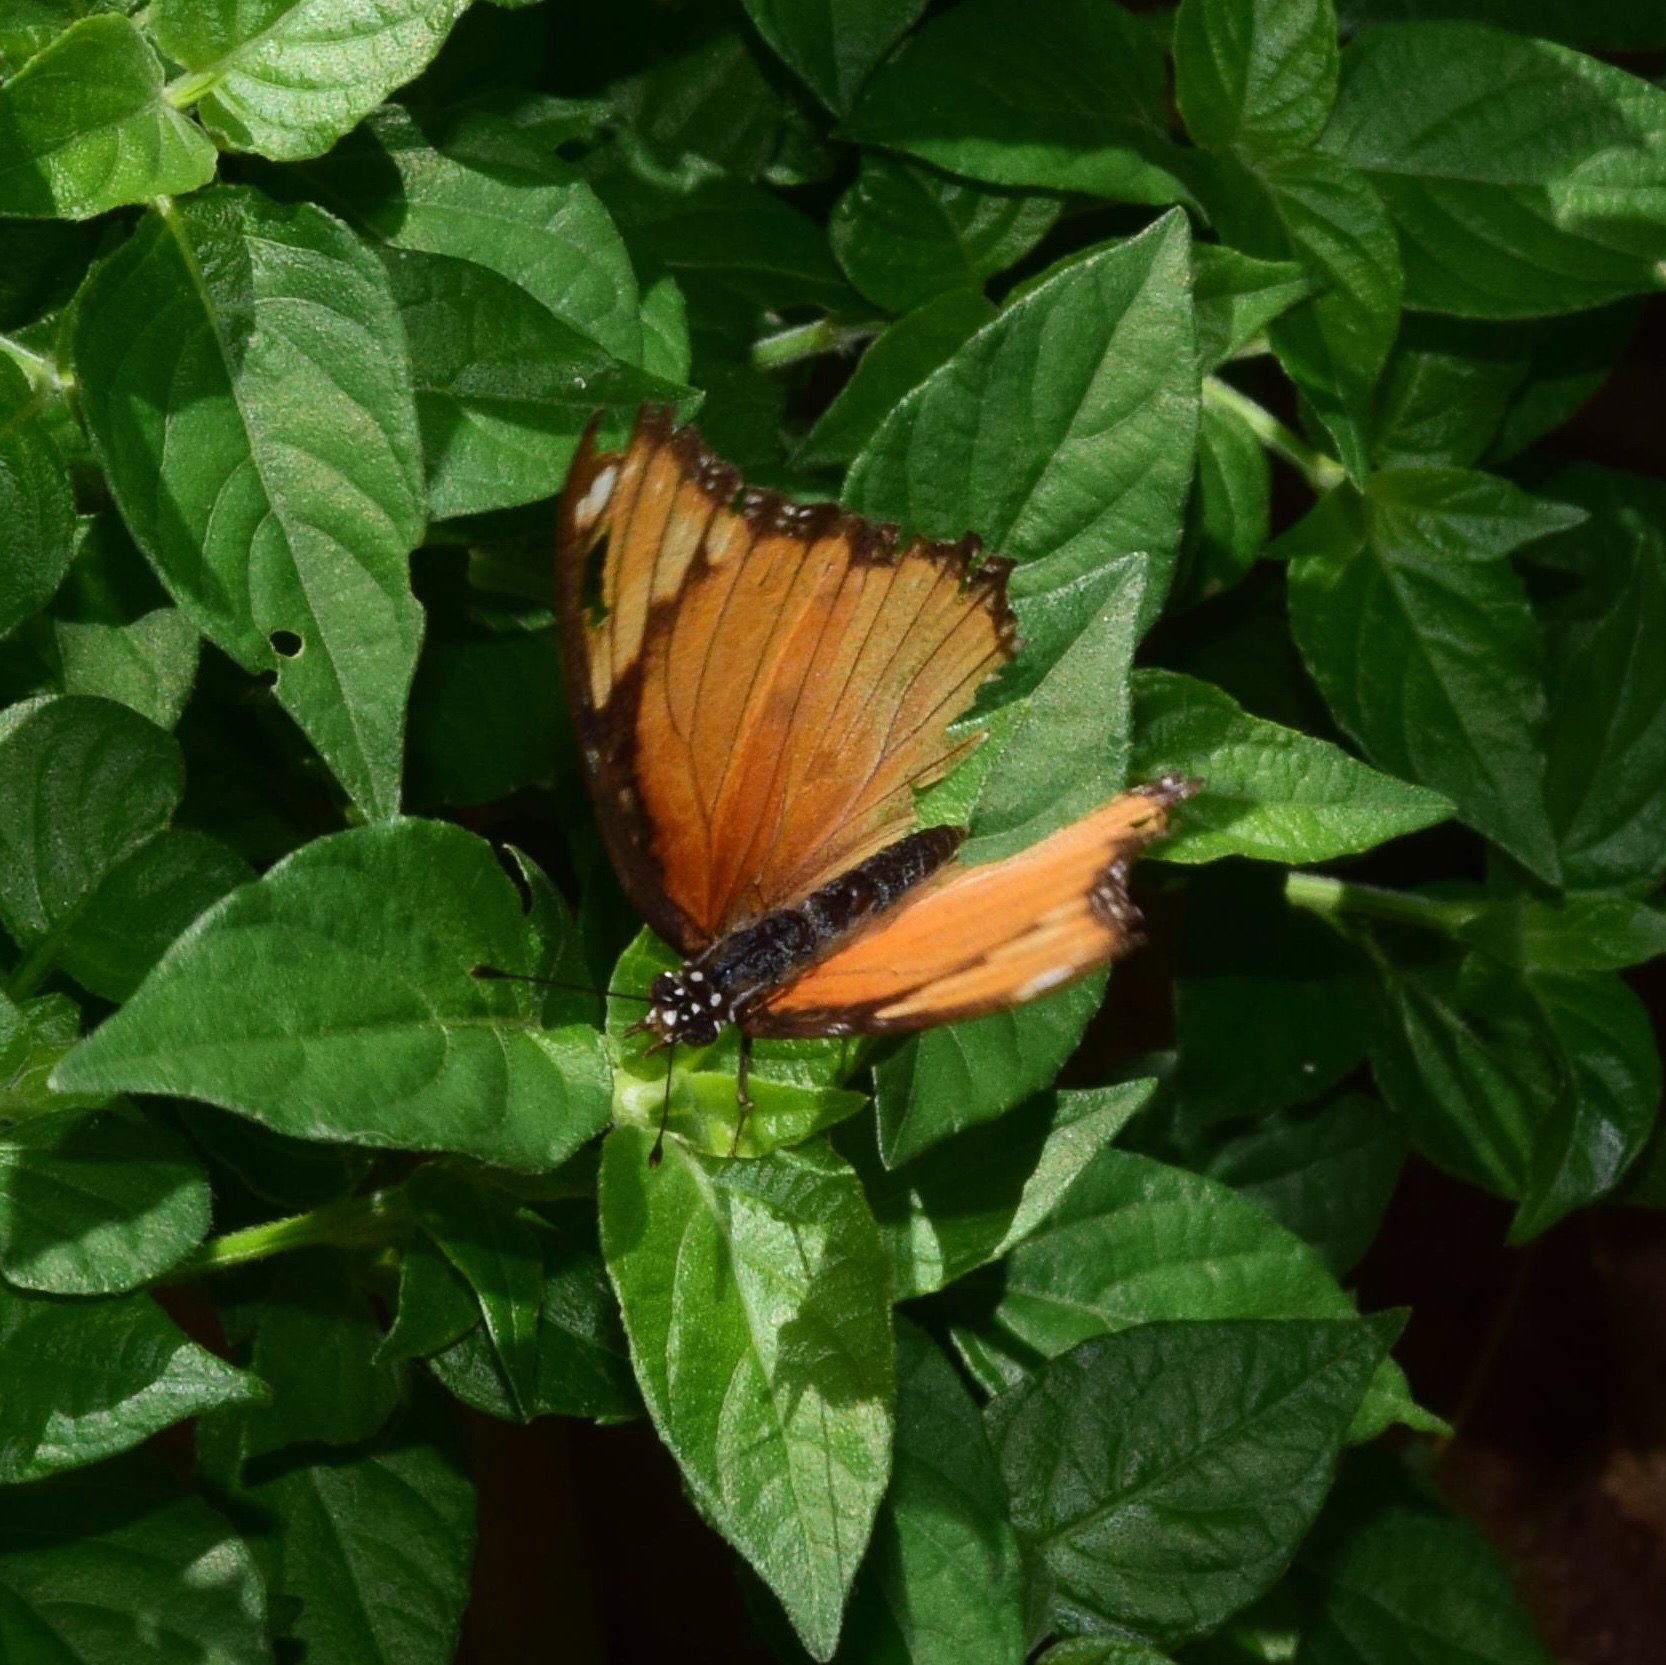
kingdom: Animalia
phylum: Arthropoda
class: Insecta
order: Lepidoptera
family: Nymphalidae
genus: Hypolimnas
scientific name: Hypolimnas misippus
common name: False plain tiger
